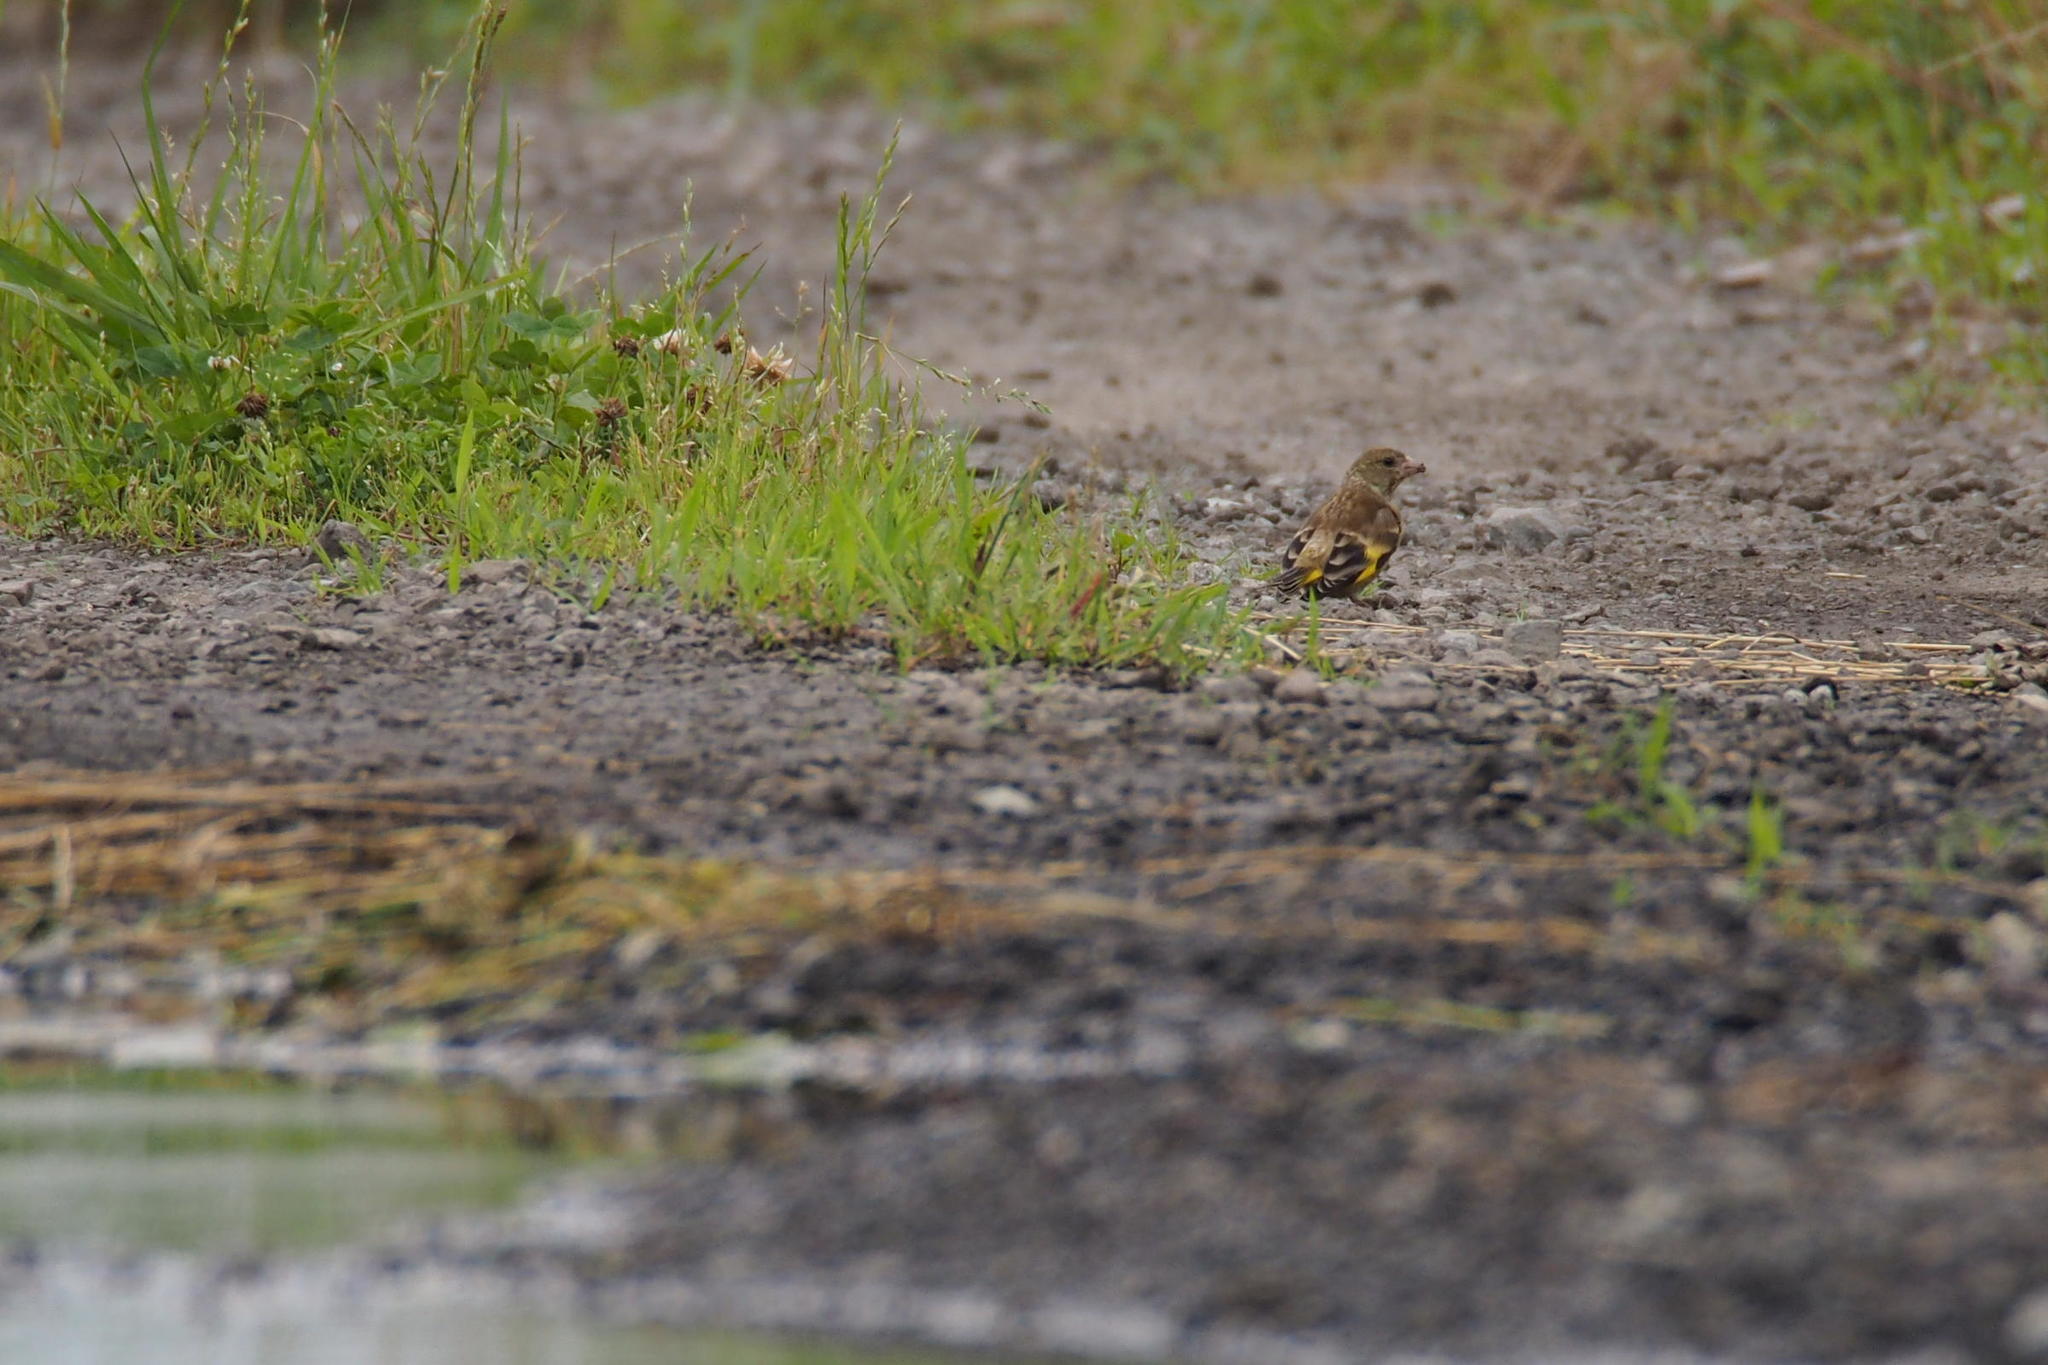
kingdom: Plantae
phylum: Tracheophyta
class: Liliopsida
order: Poales
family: Poaceae
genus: Chloris
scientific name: Chloris sinica
